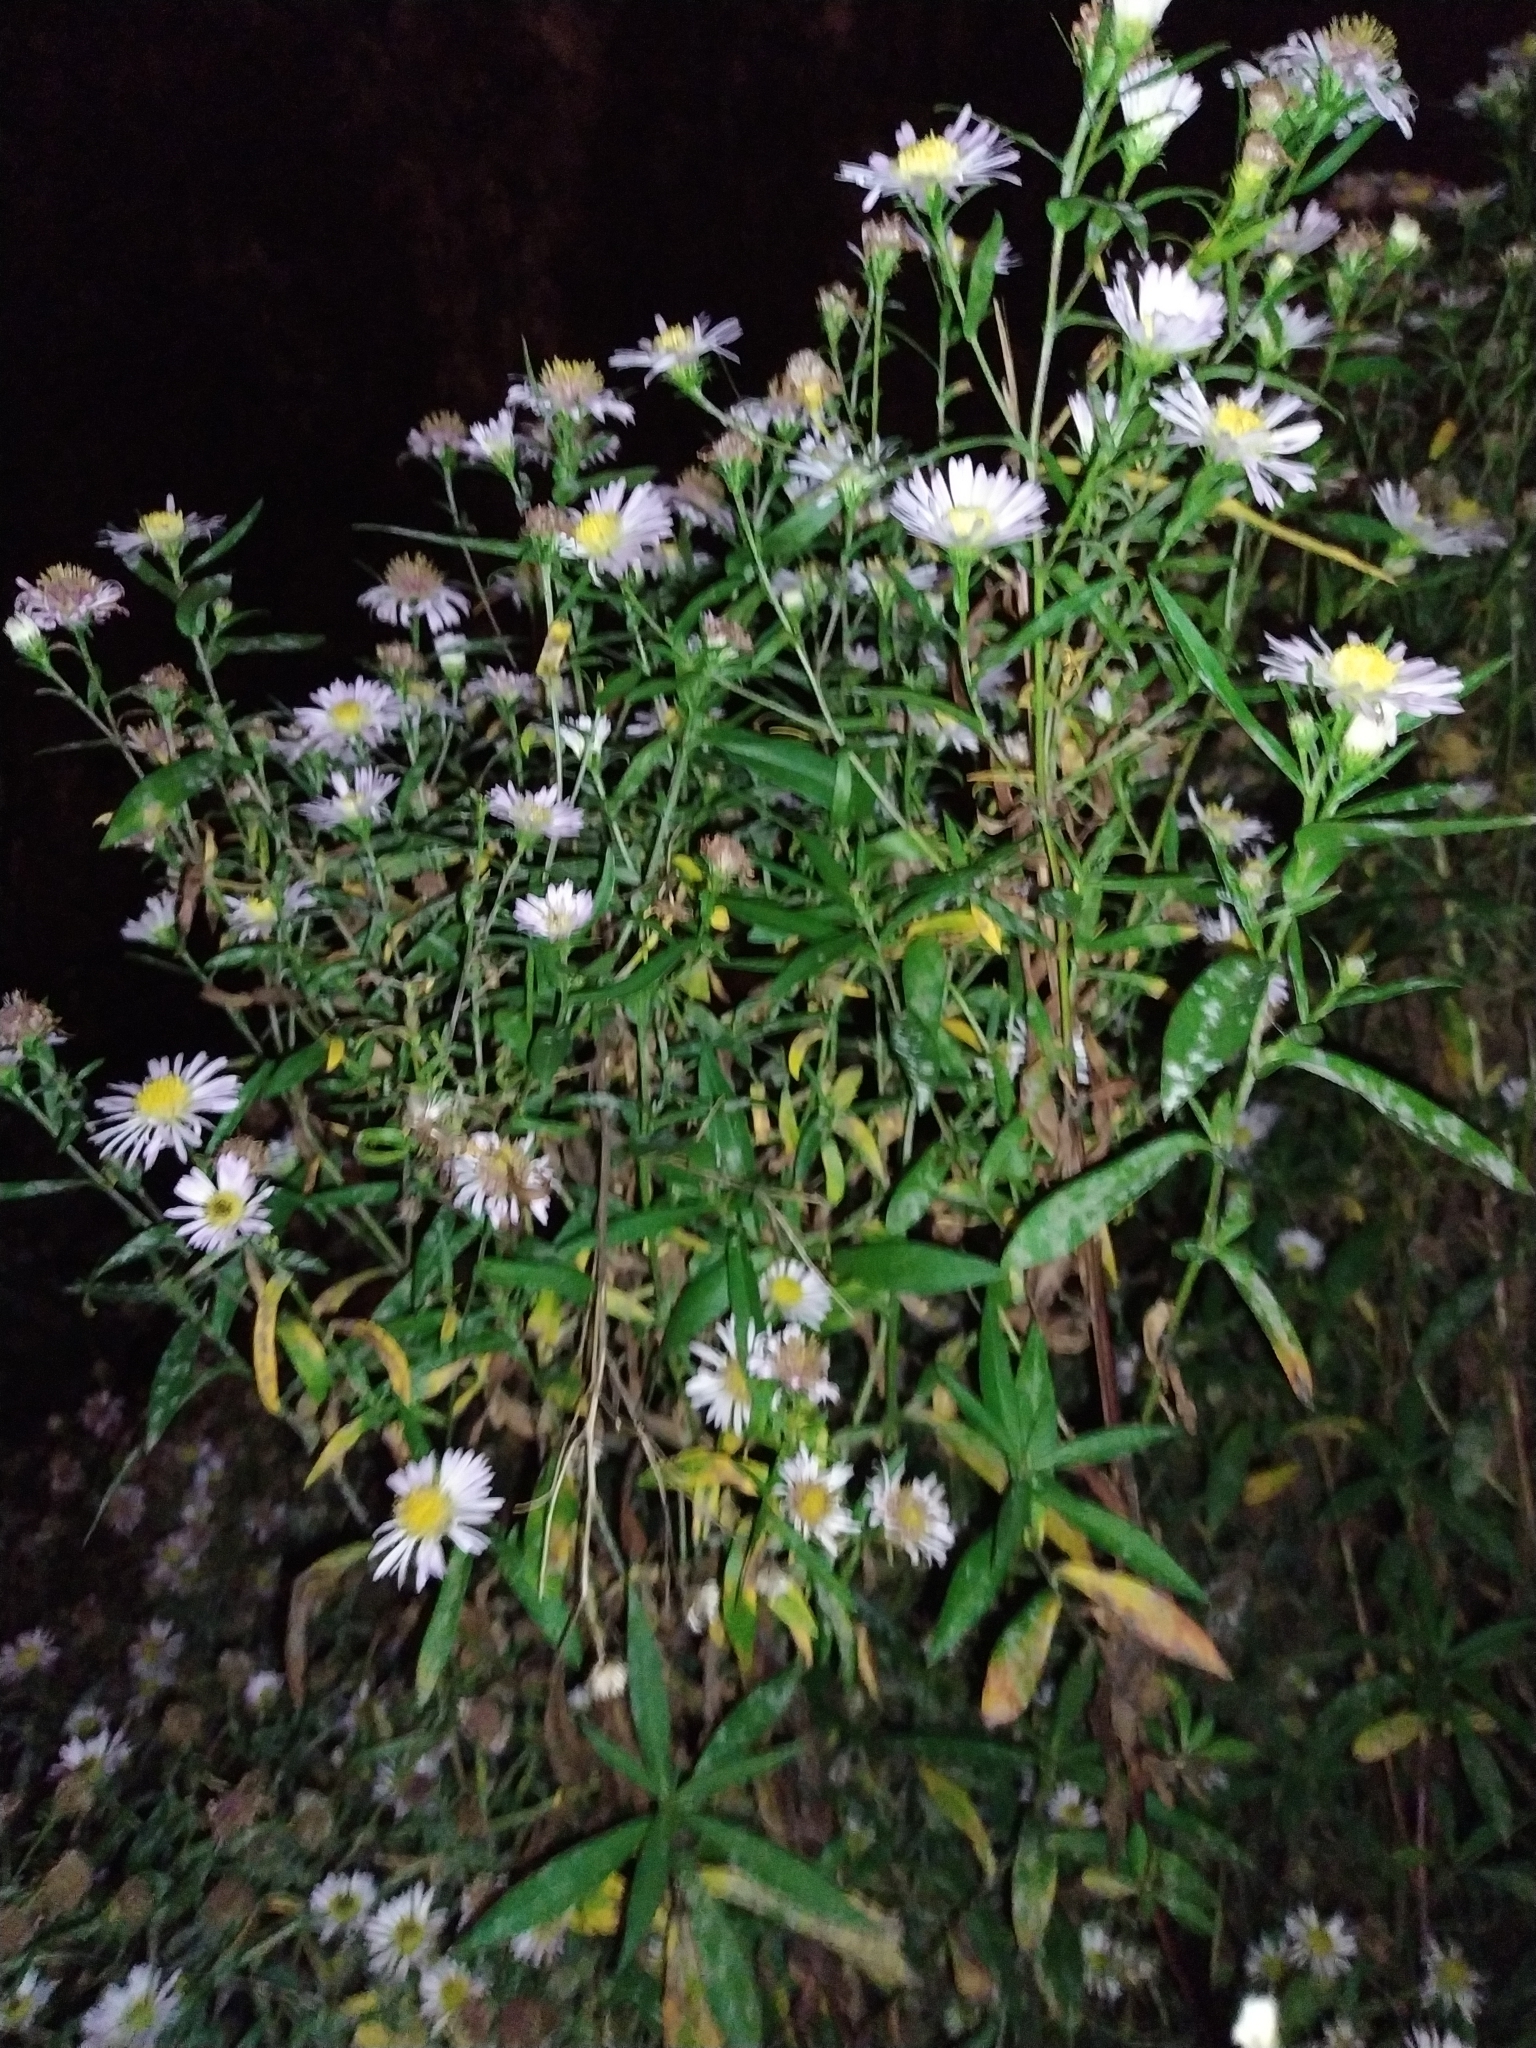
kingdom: Plantae
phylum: Tracheophyta
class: Magnoliopsida
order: Asterales
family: Asteraceae
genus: Symphyotrichum
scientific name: Symphyotrichum novi-belgii
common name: Michaelmas daisy
